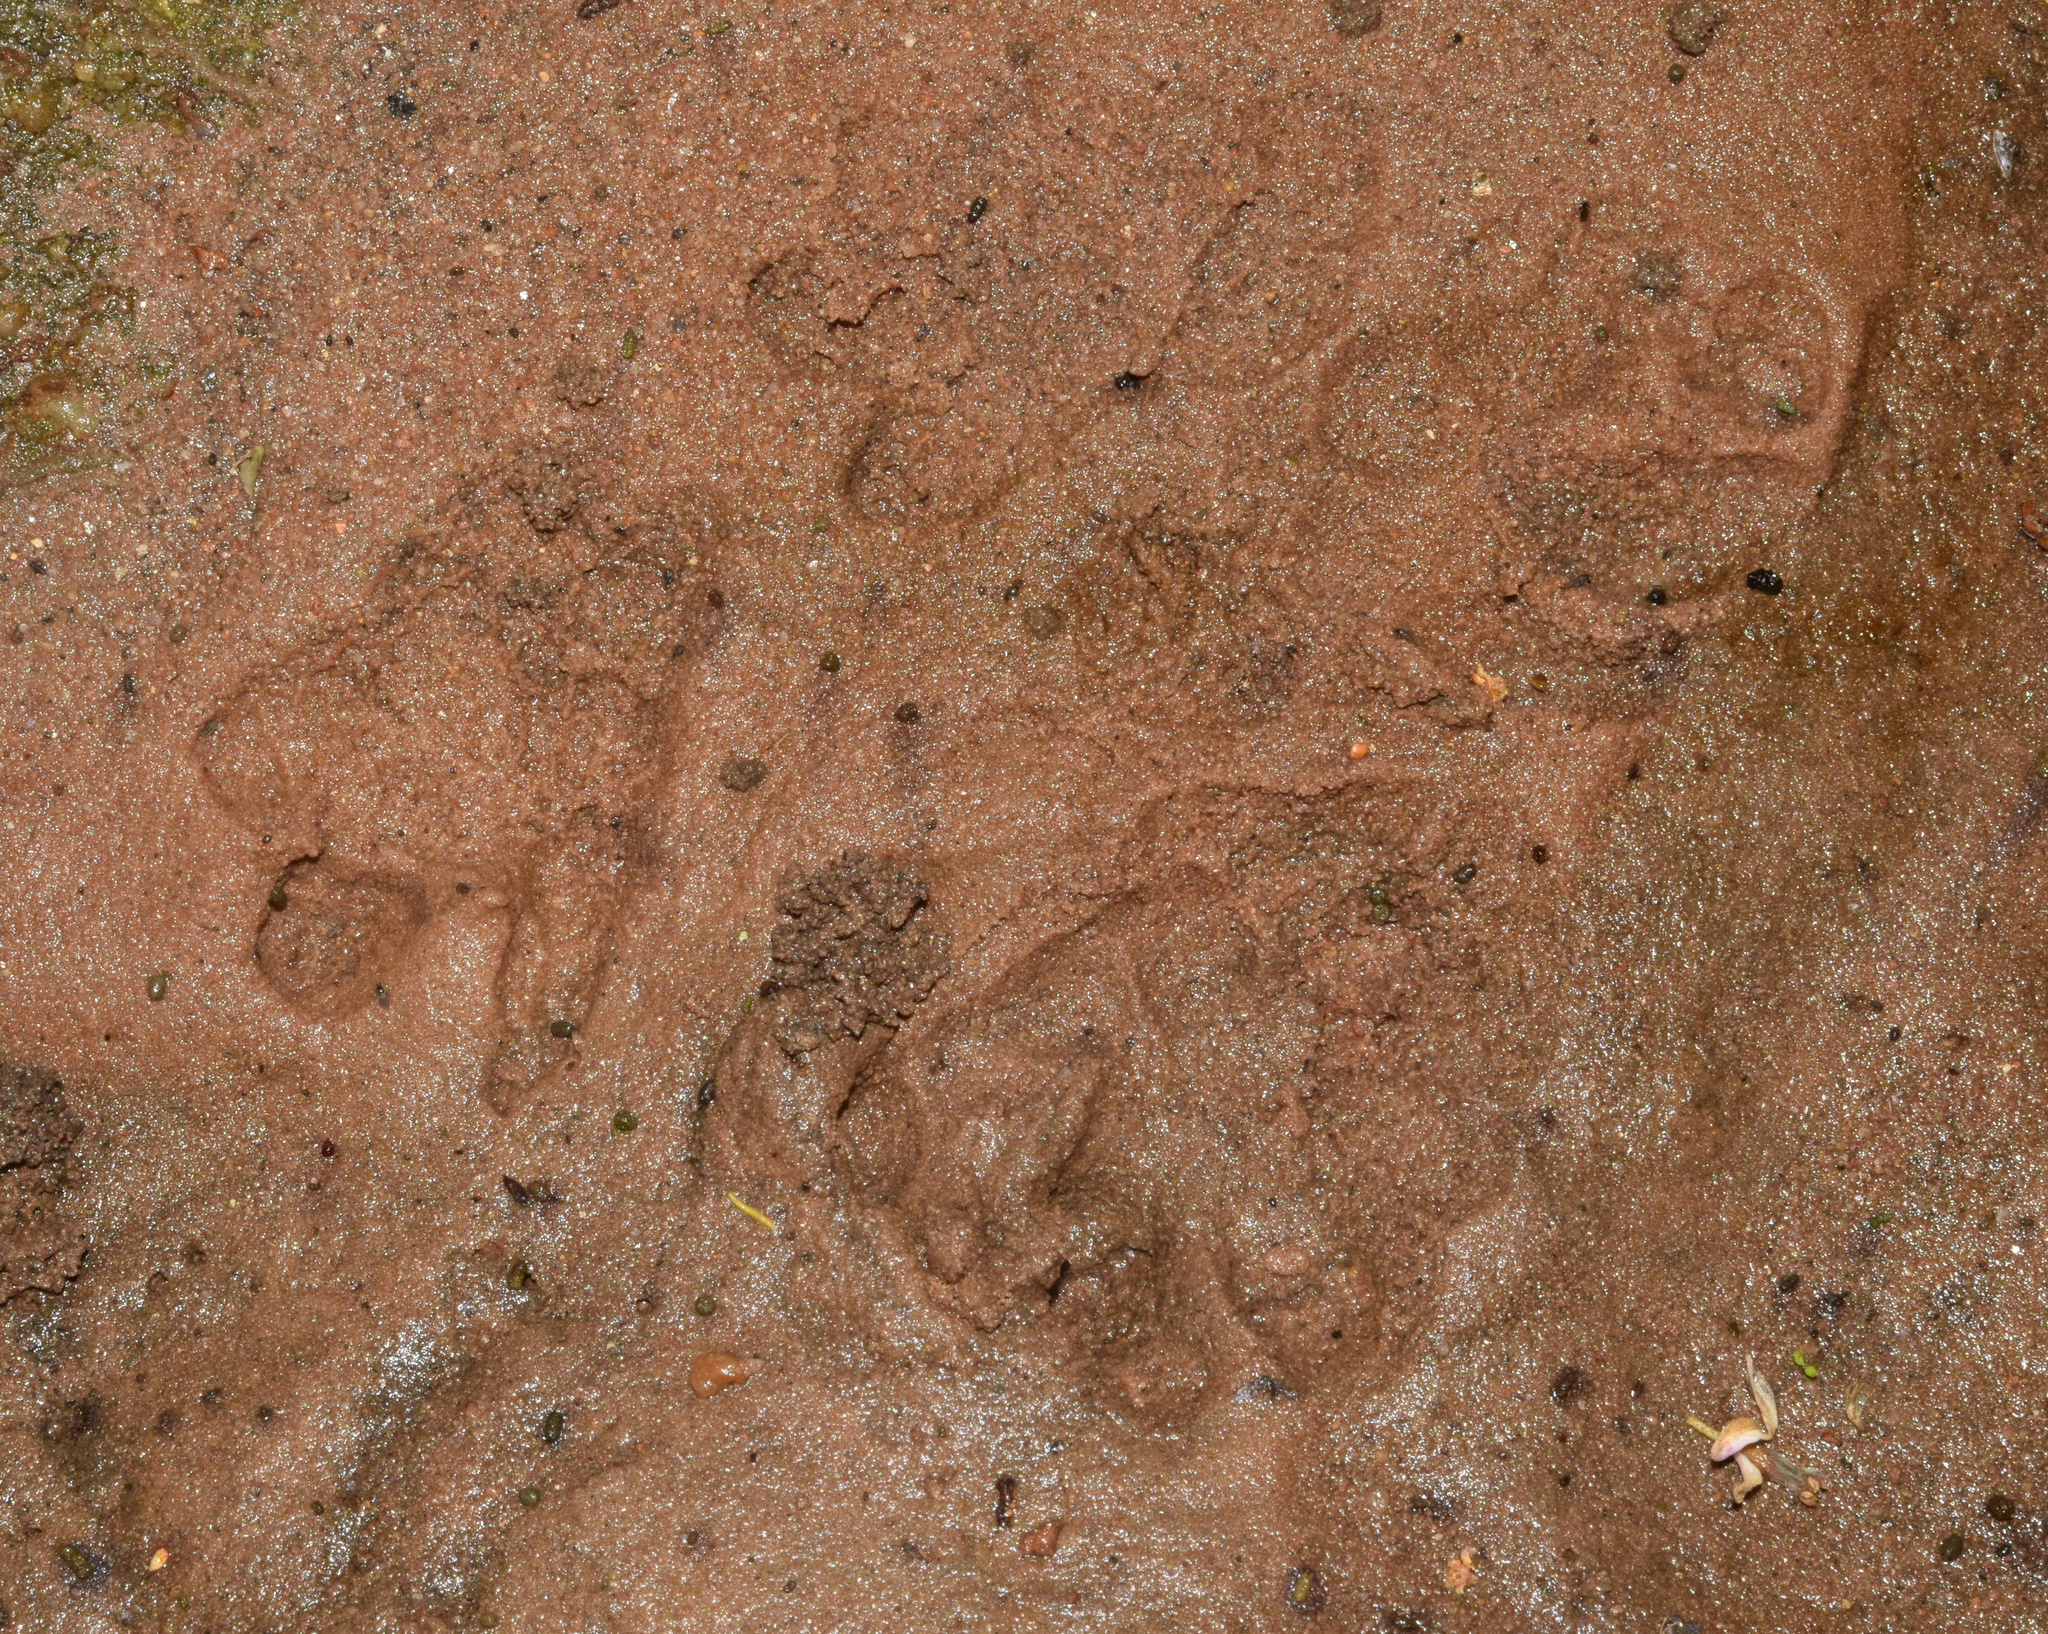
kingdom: Animalia
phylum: Chordata
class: Mammalia
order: Hyracoidea
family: Procaviidae
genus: Procavia
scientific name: Procavia capensis
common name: Rock hyrax
